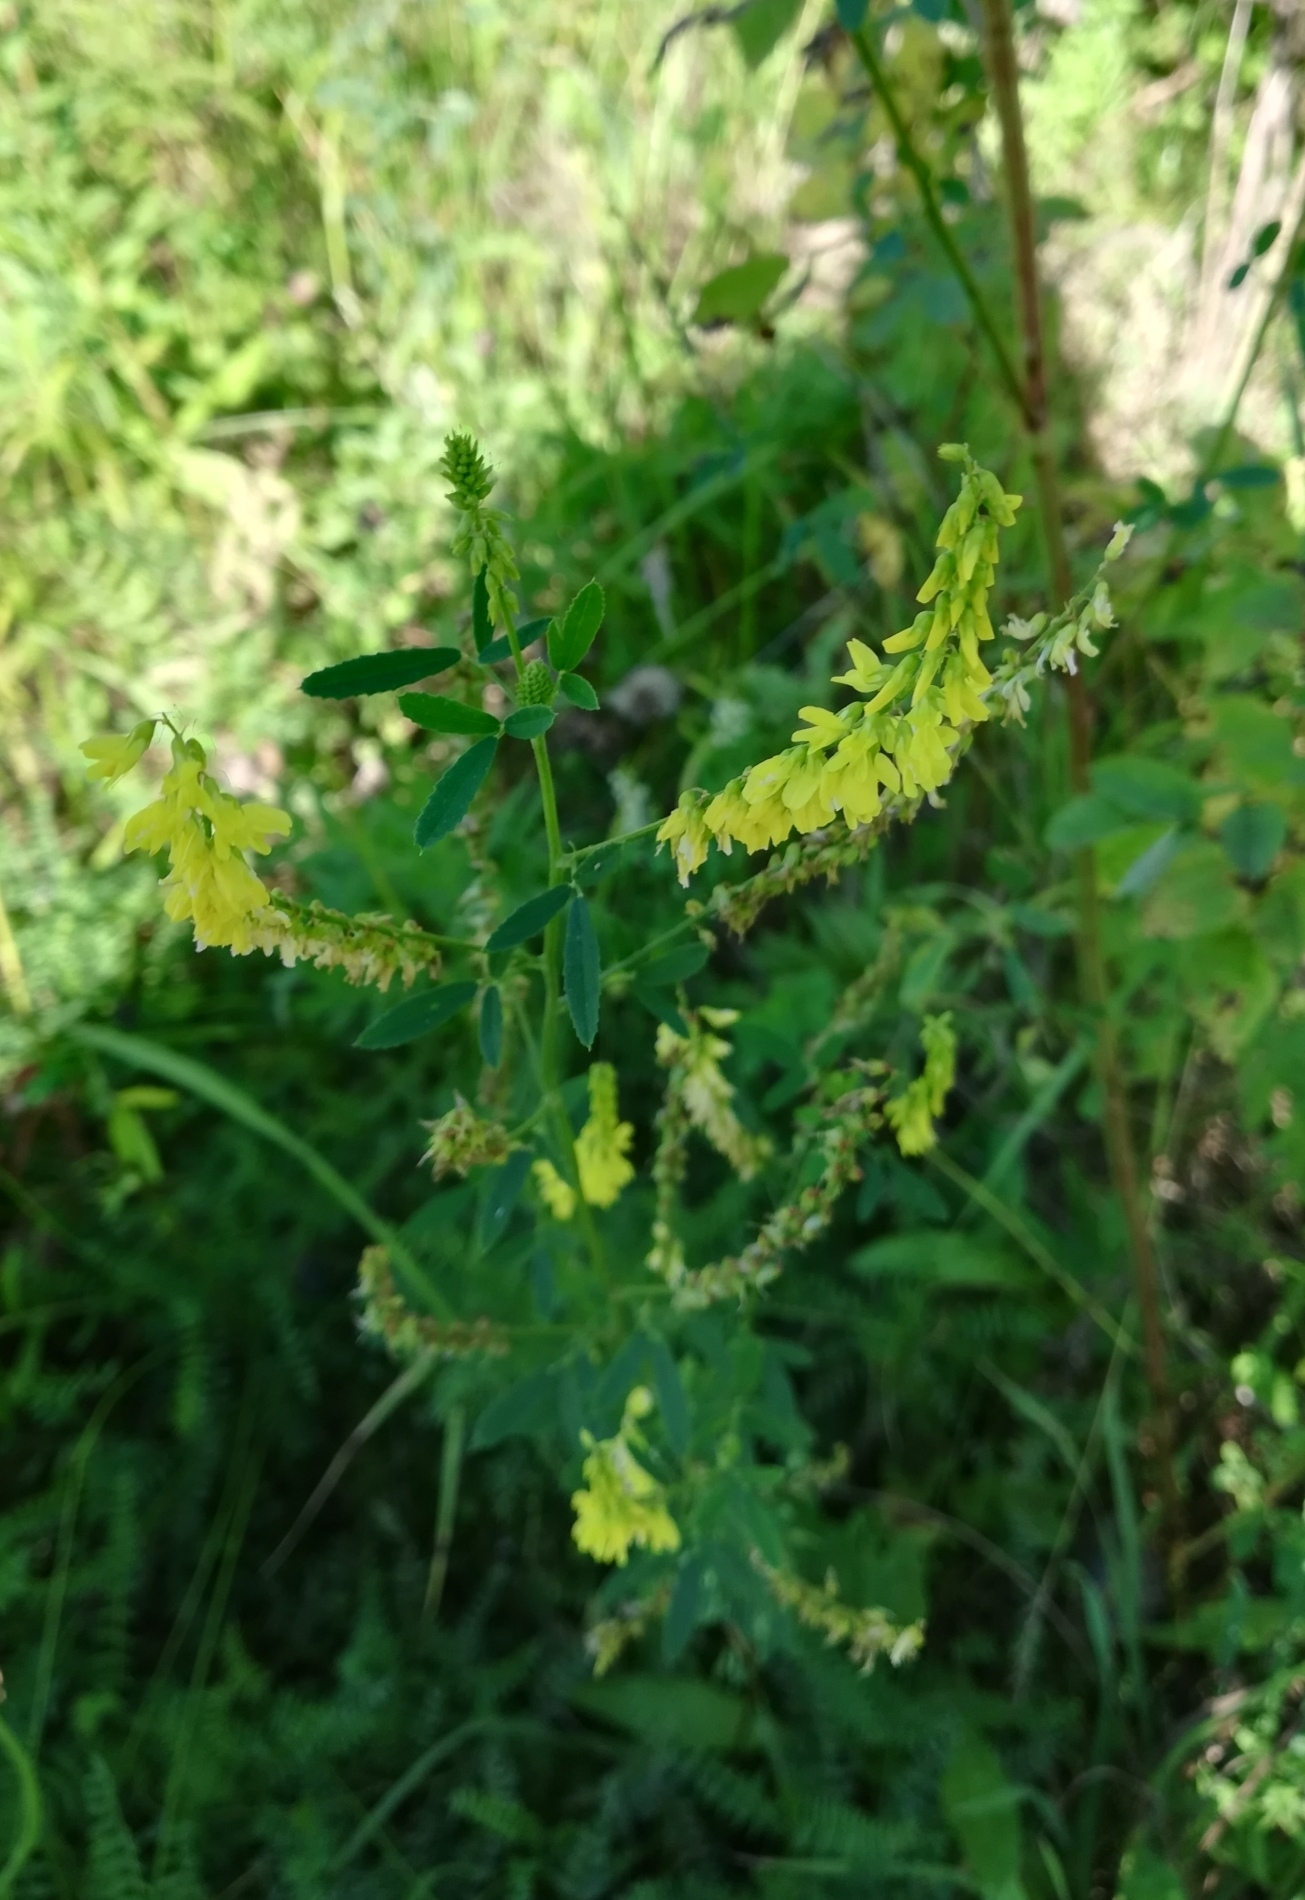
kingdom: Plantae
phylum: Tracheophyta
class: Magnoliopsida
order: Fabales
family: Fabaceae
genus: Melilotus
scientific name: Melilotus officinalis
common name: Sweetclover
